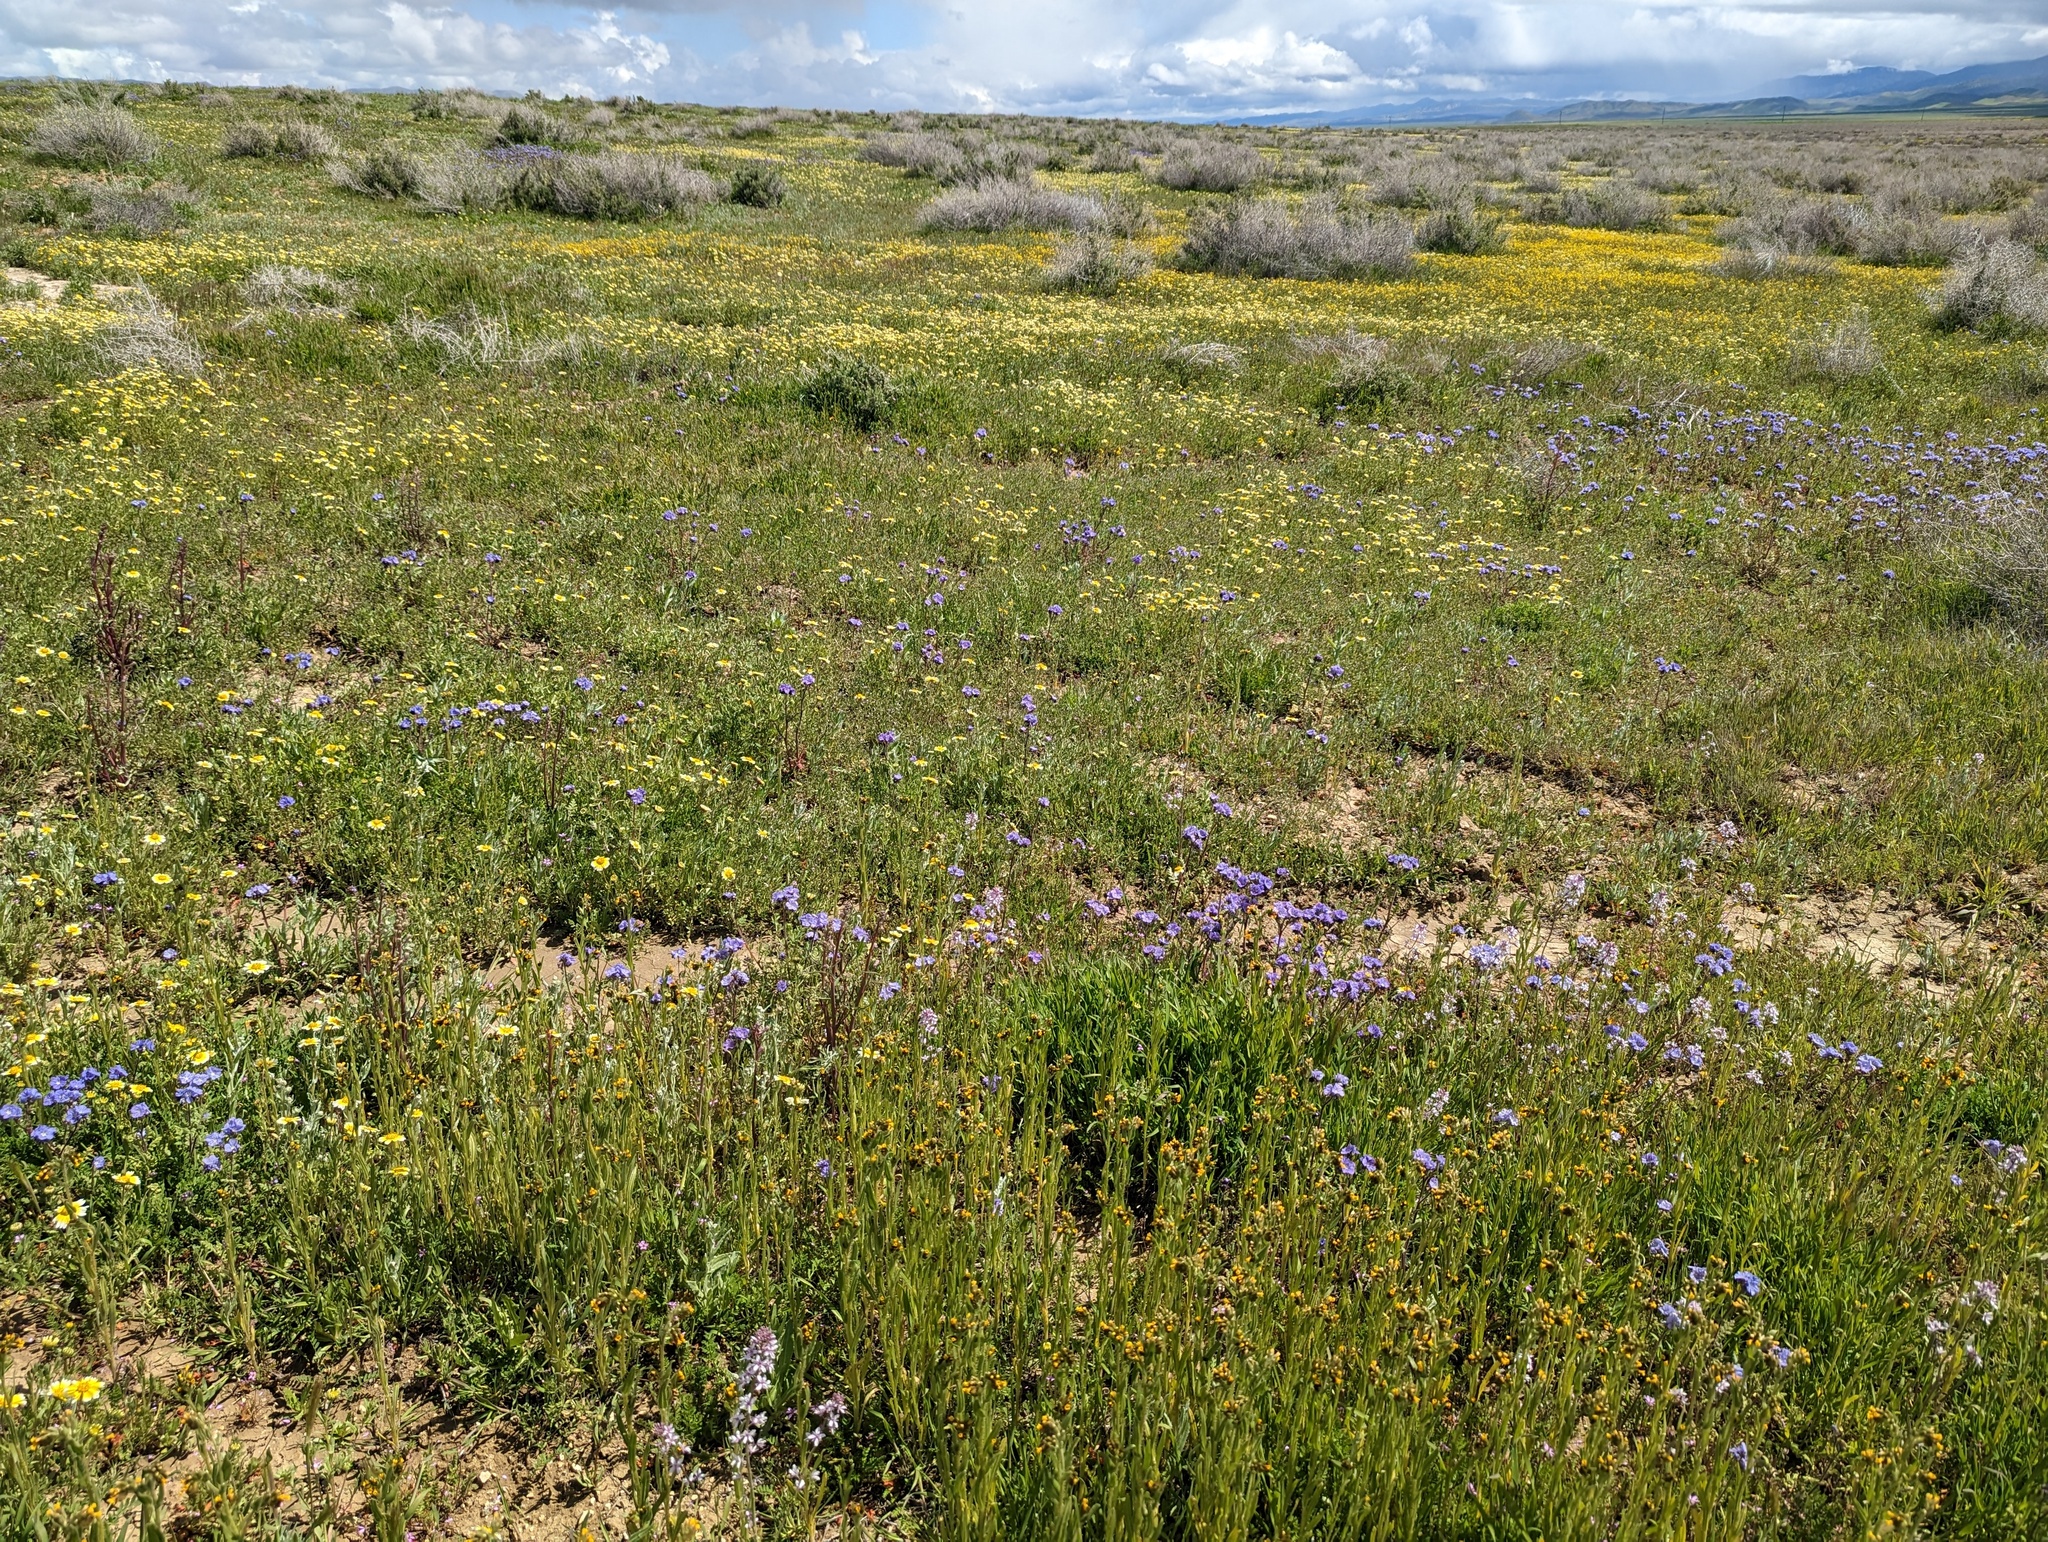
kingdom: Plantae
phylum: Tracheophyta
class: Magnoliopsida
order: Brassicales
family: Brassicaceae
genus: Streptanthus
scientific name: Streptanthus anceps
